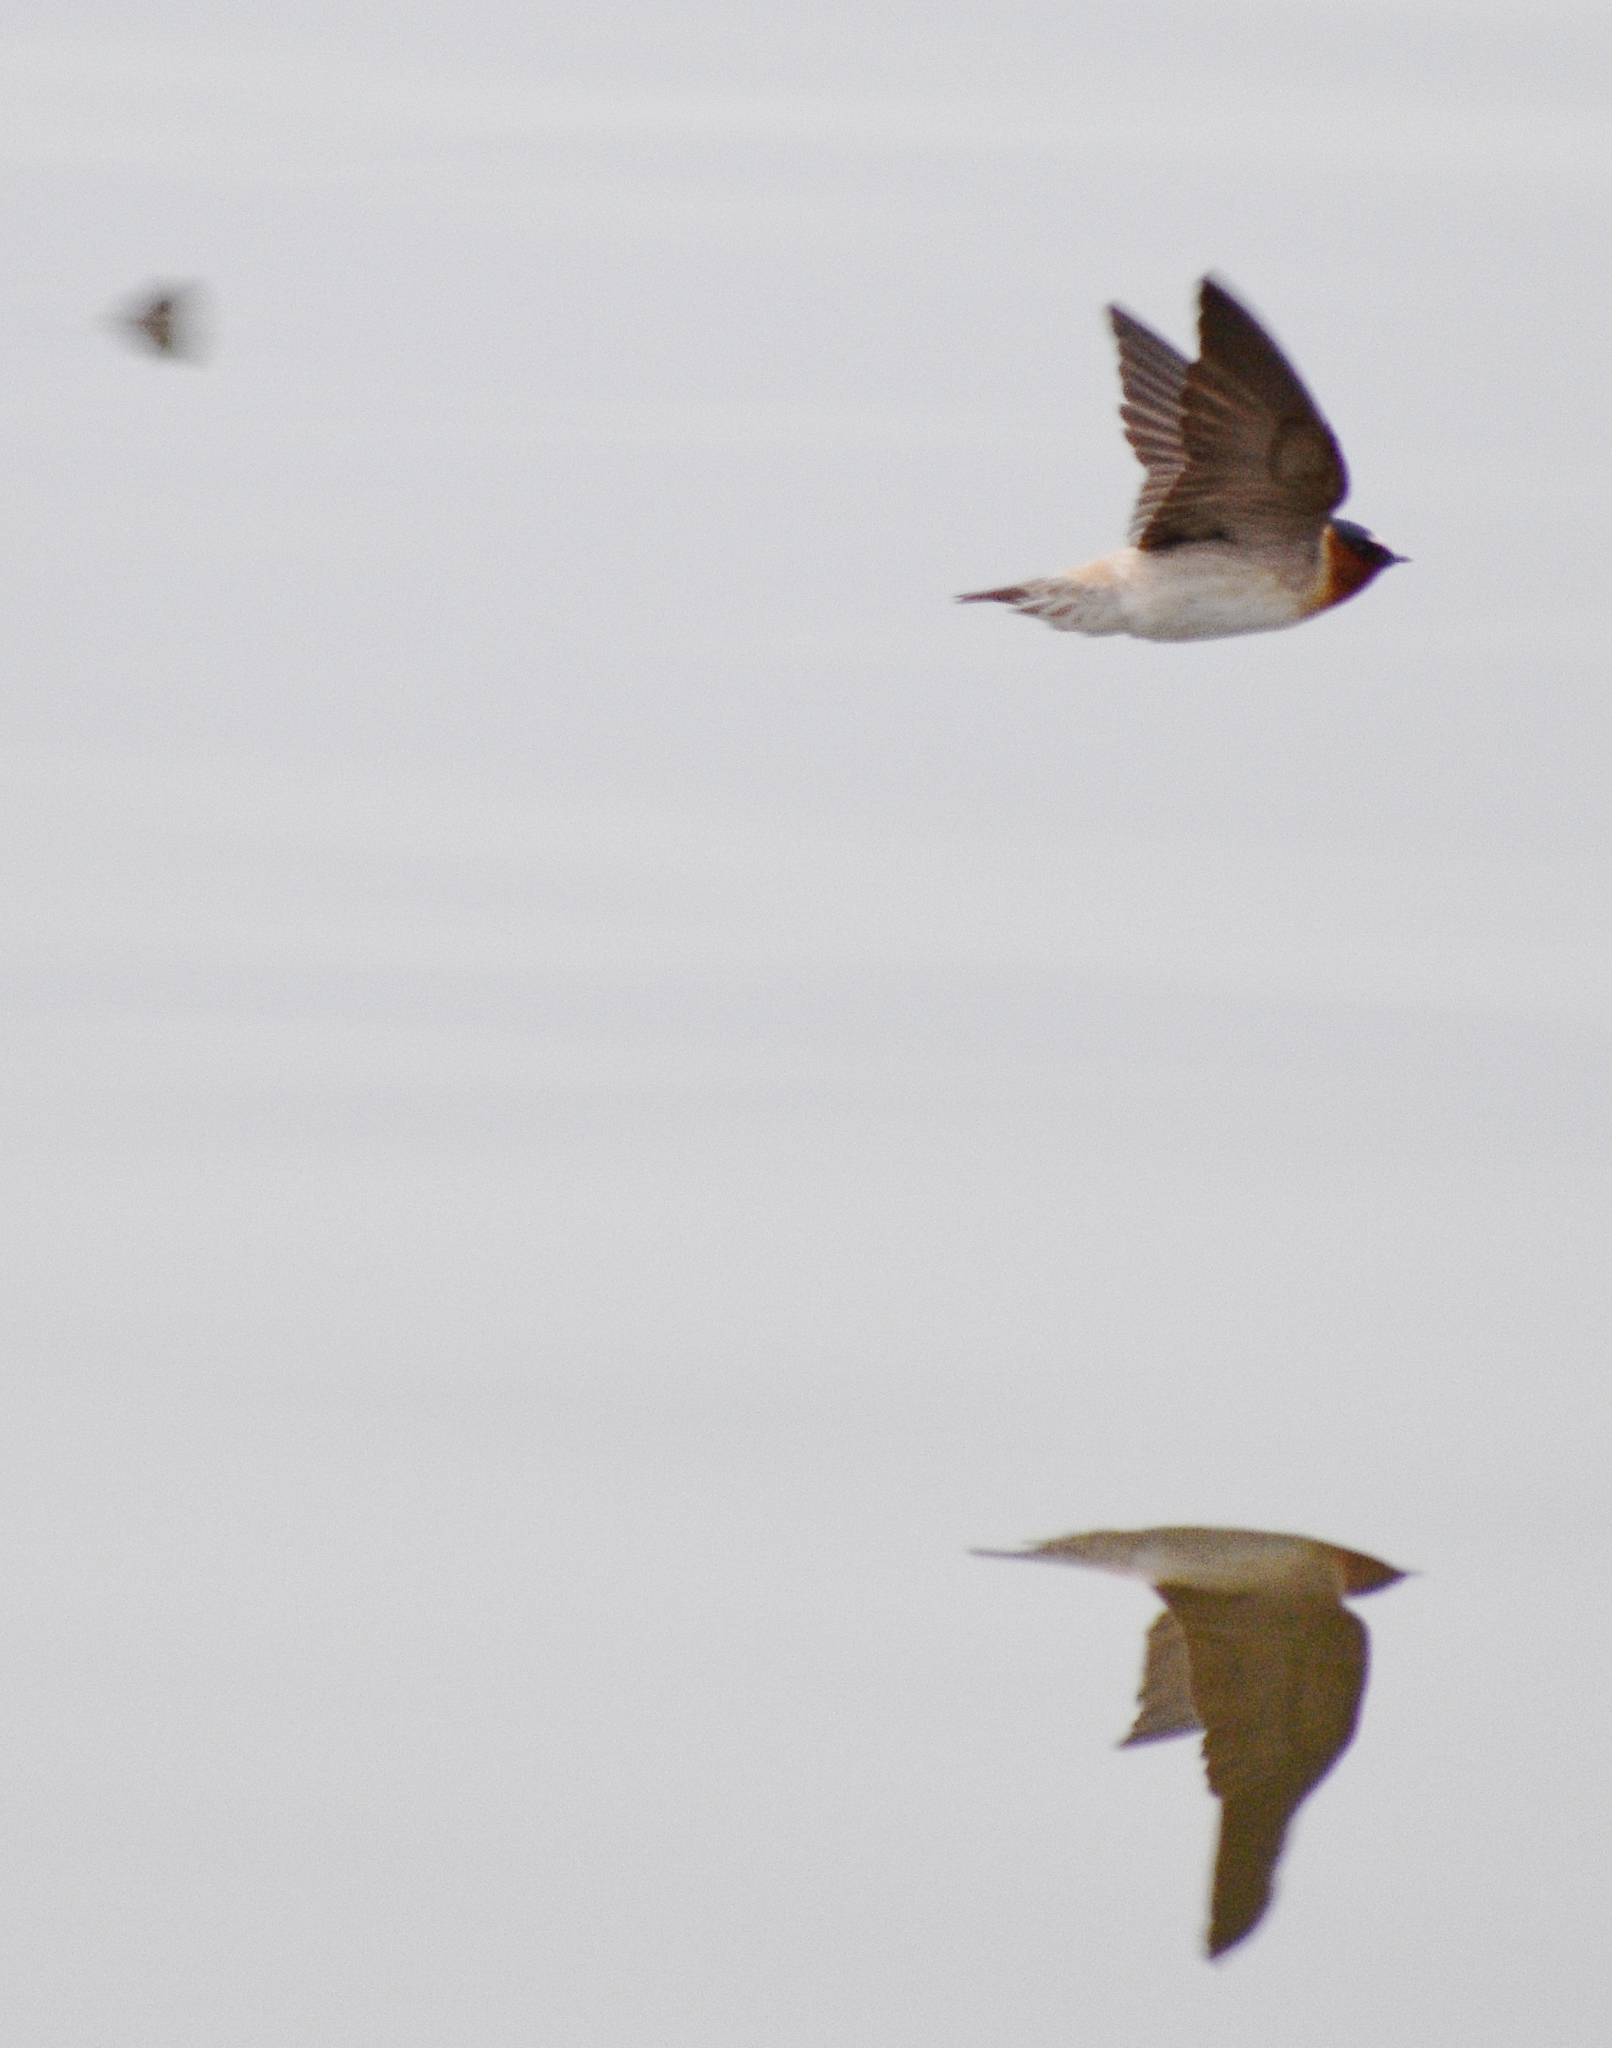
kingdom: Animalia
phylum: Chordata
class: Aves
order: Passeriformes
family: Hirundinidae
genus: Petrochelidon
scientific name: Petrochelidon pyrrhonota
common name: American cliff swallow
